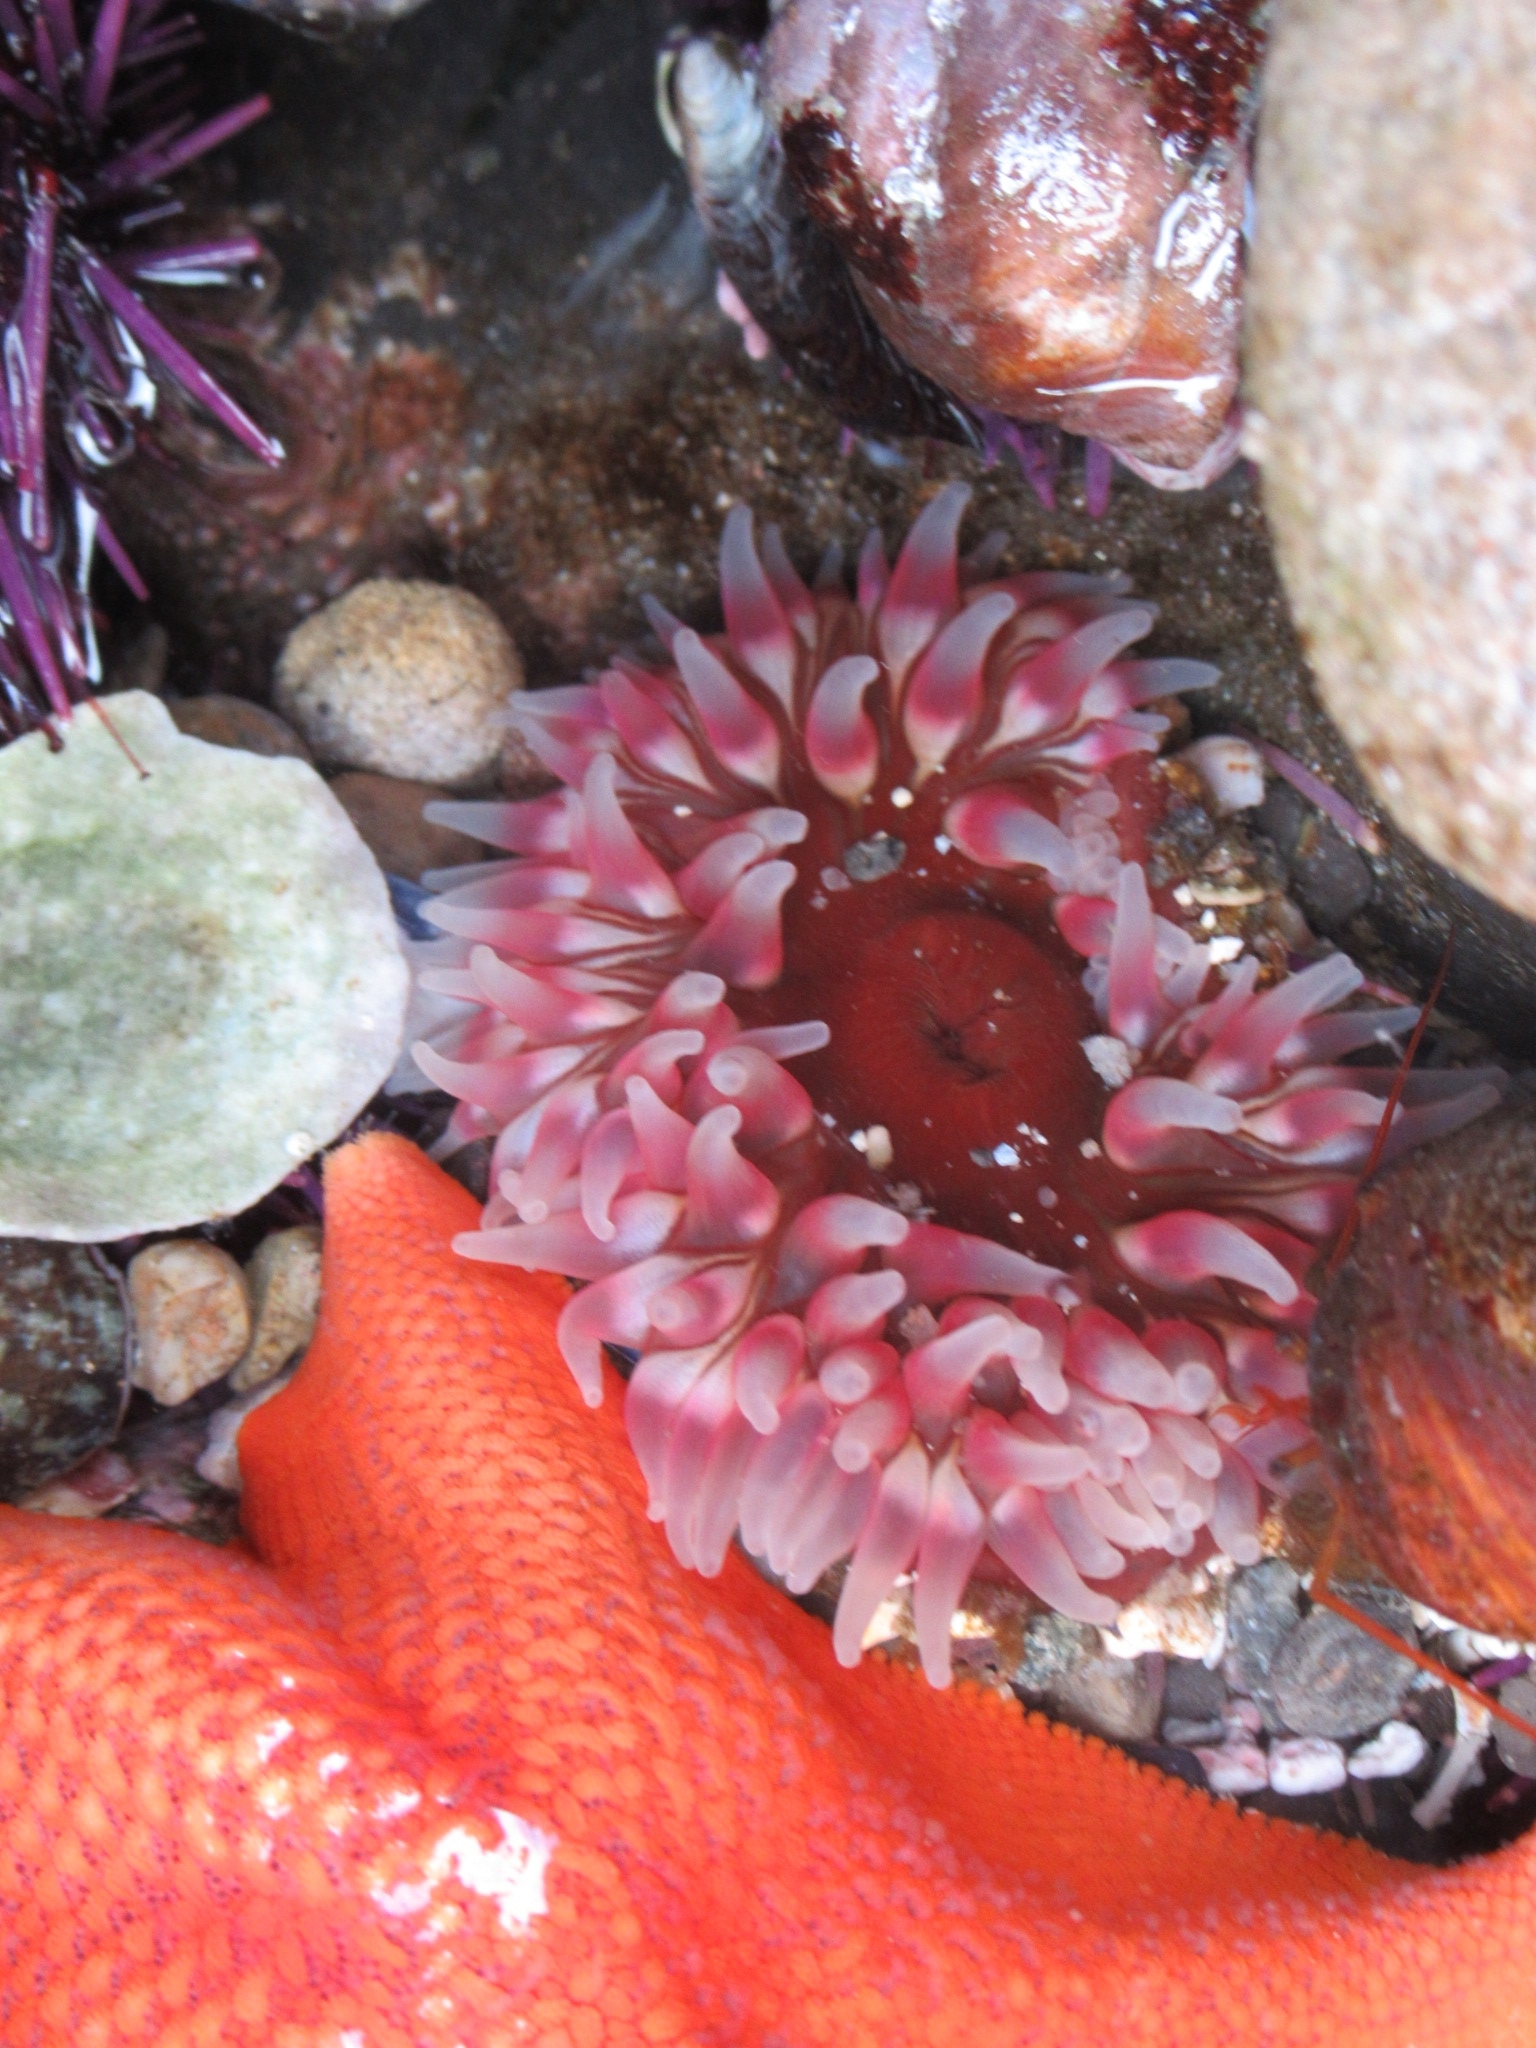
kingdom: Animalia
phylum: Cnidaria
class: Anthozoa
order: Actiniaria
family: Actiniidae
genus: Urticina
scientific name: Urticina clandestina
